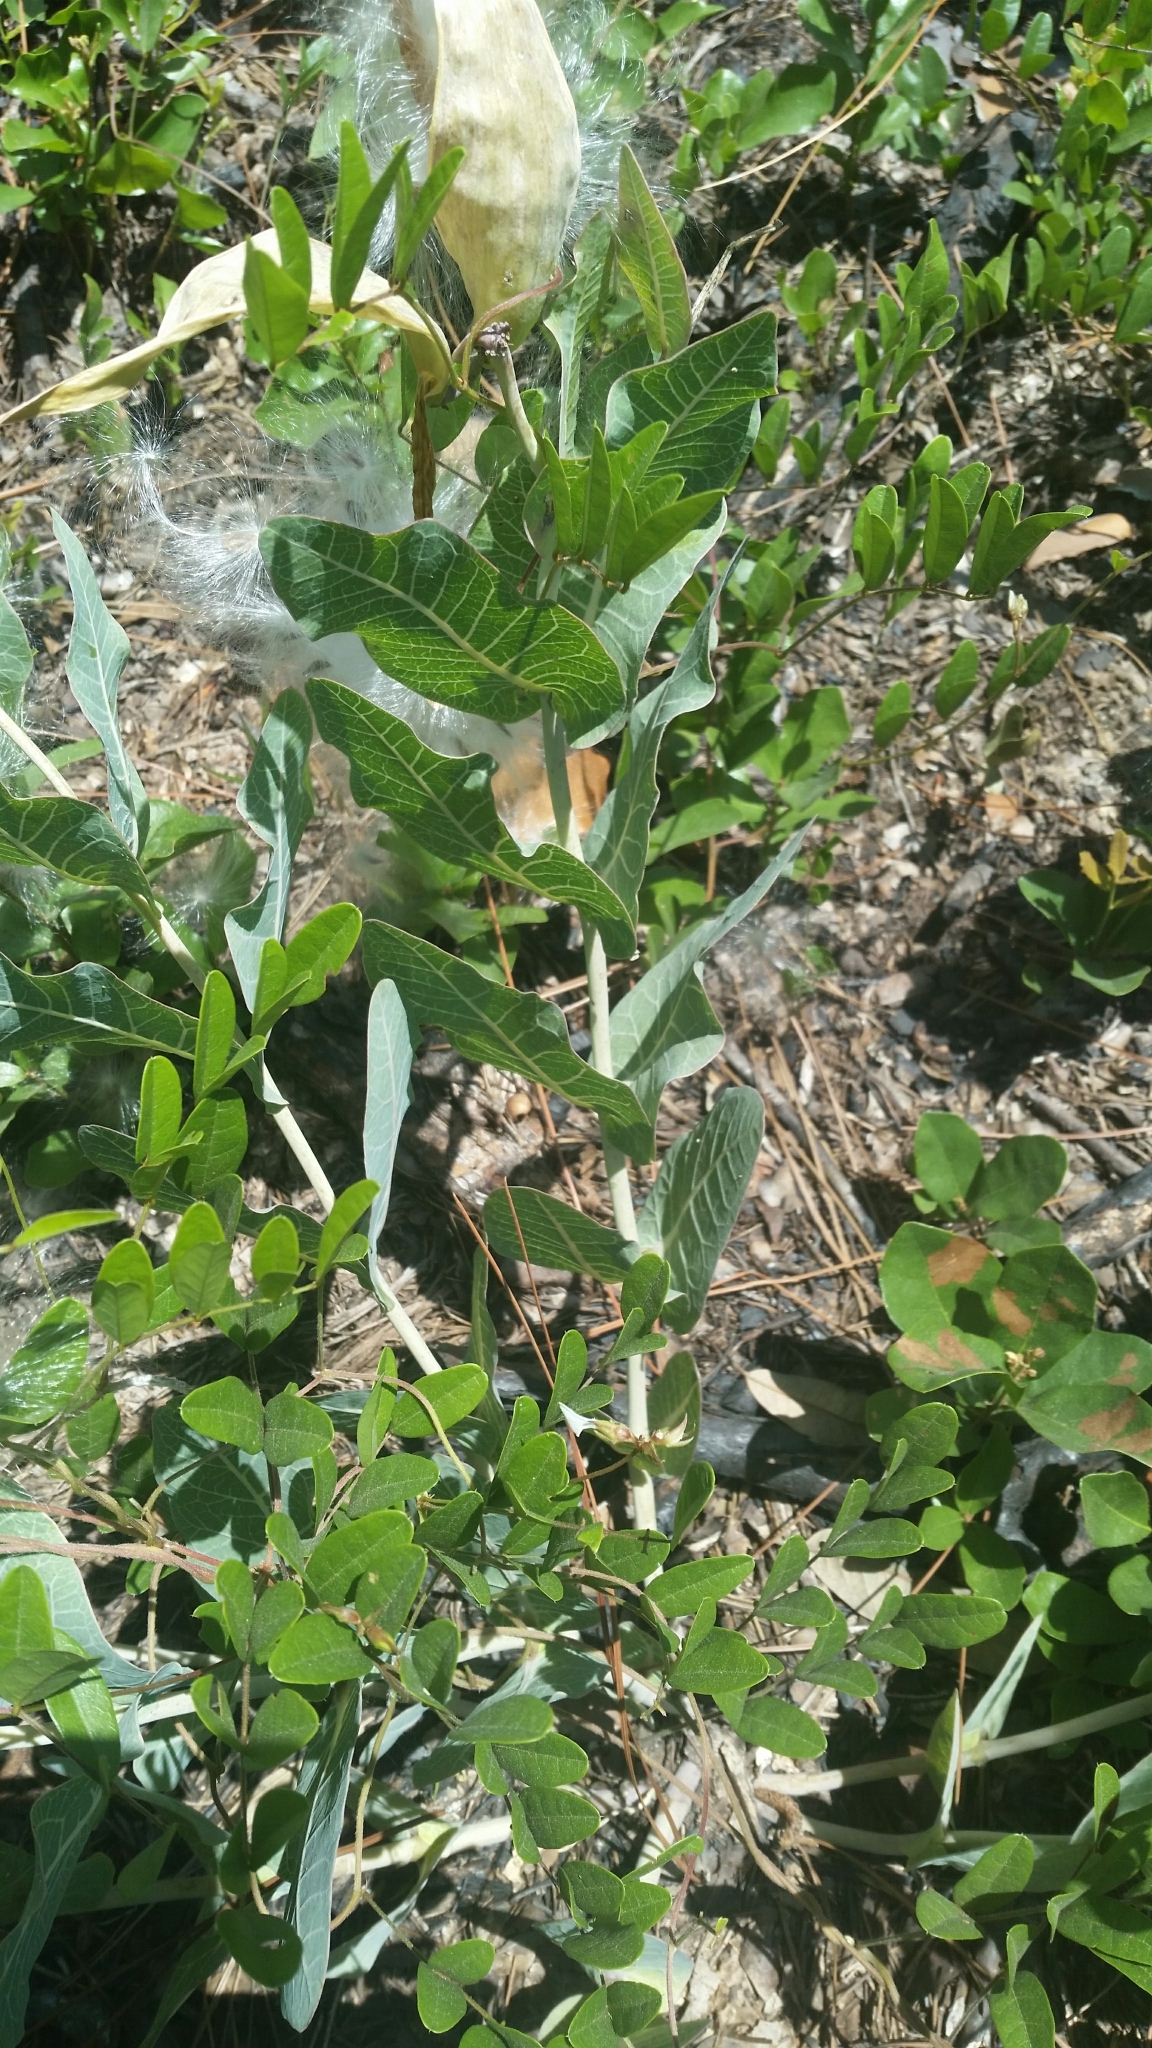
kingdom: Plantae
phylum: Tracheophyta
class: Magnoliopsida
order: Gentianales
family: Apocynaceae
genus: Asclepias
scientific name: Asclepias humistrata
